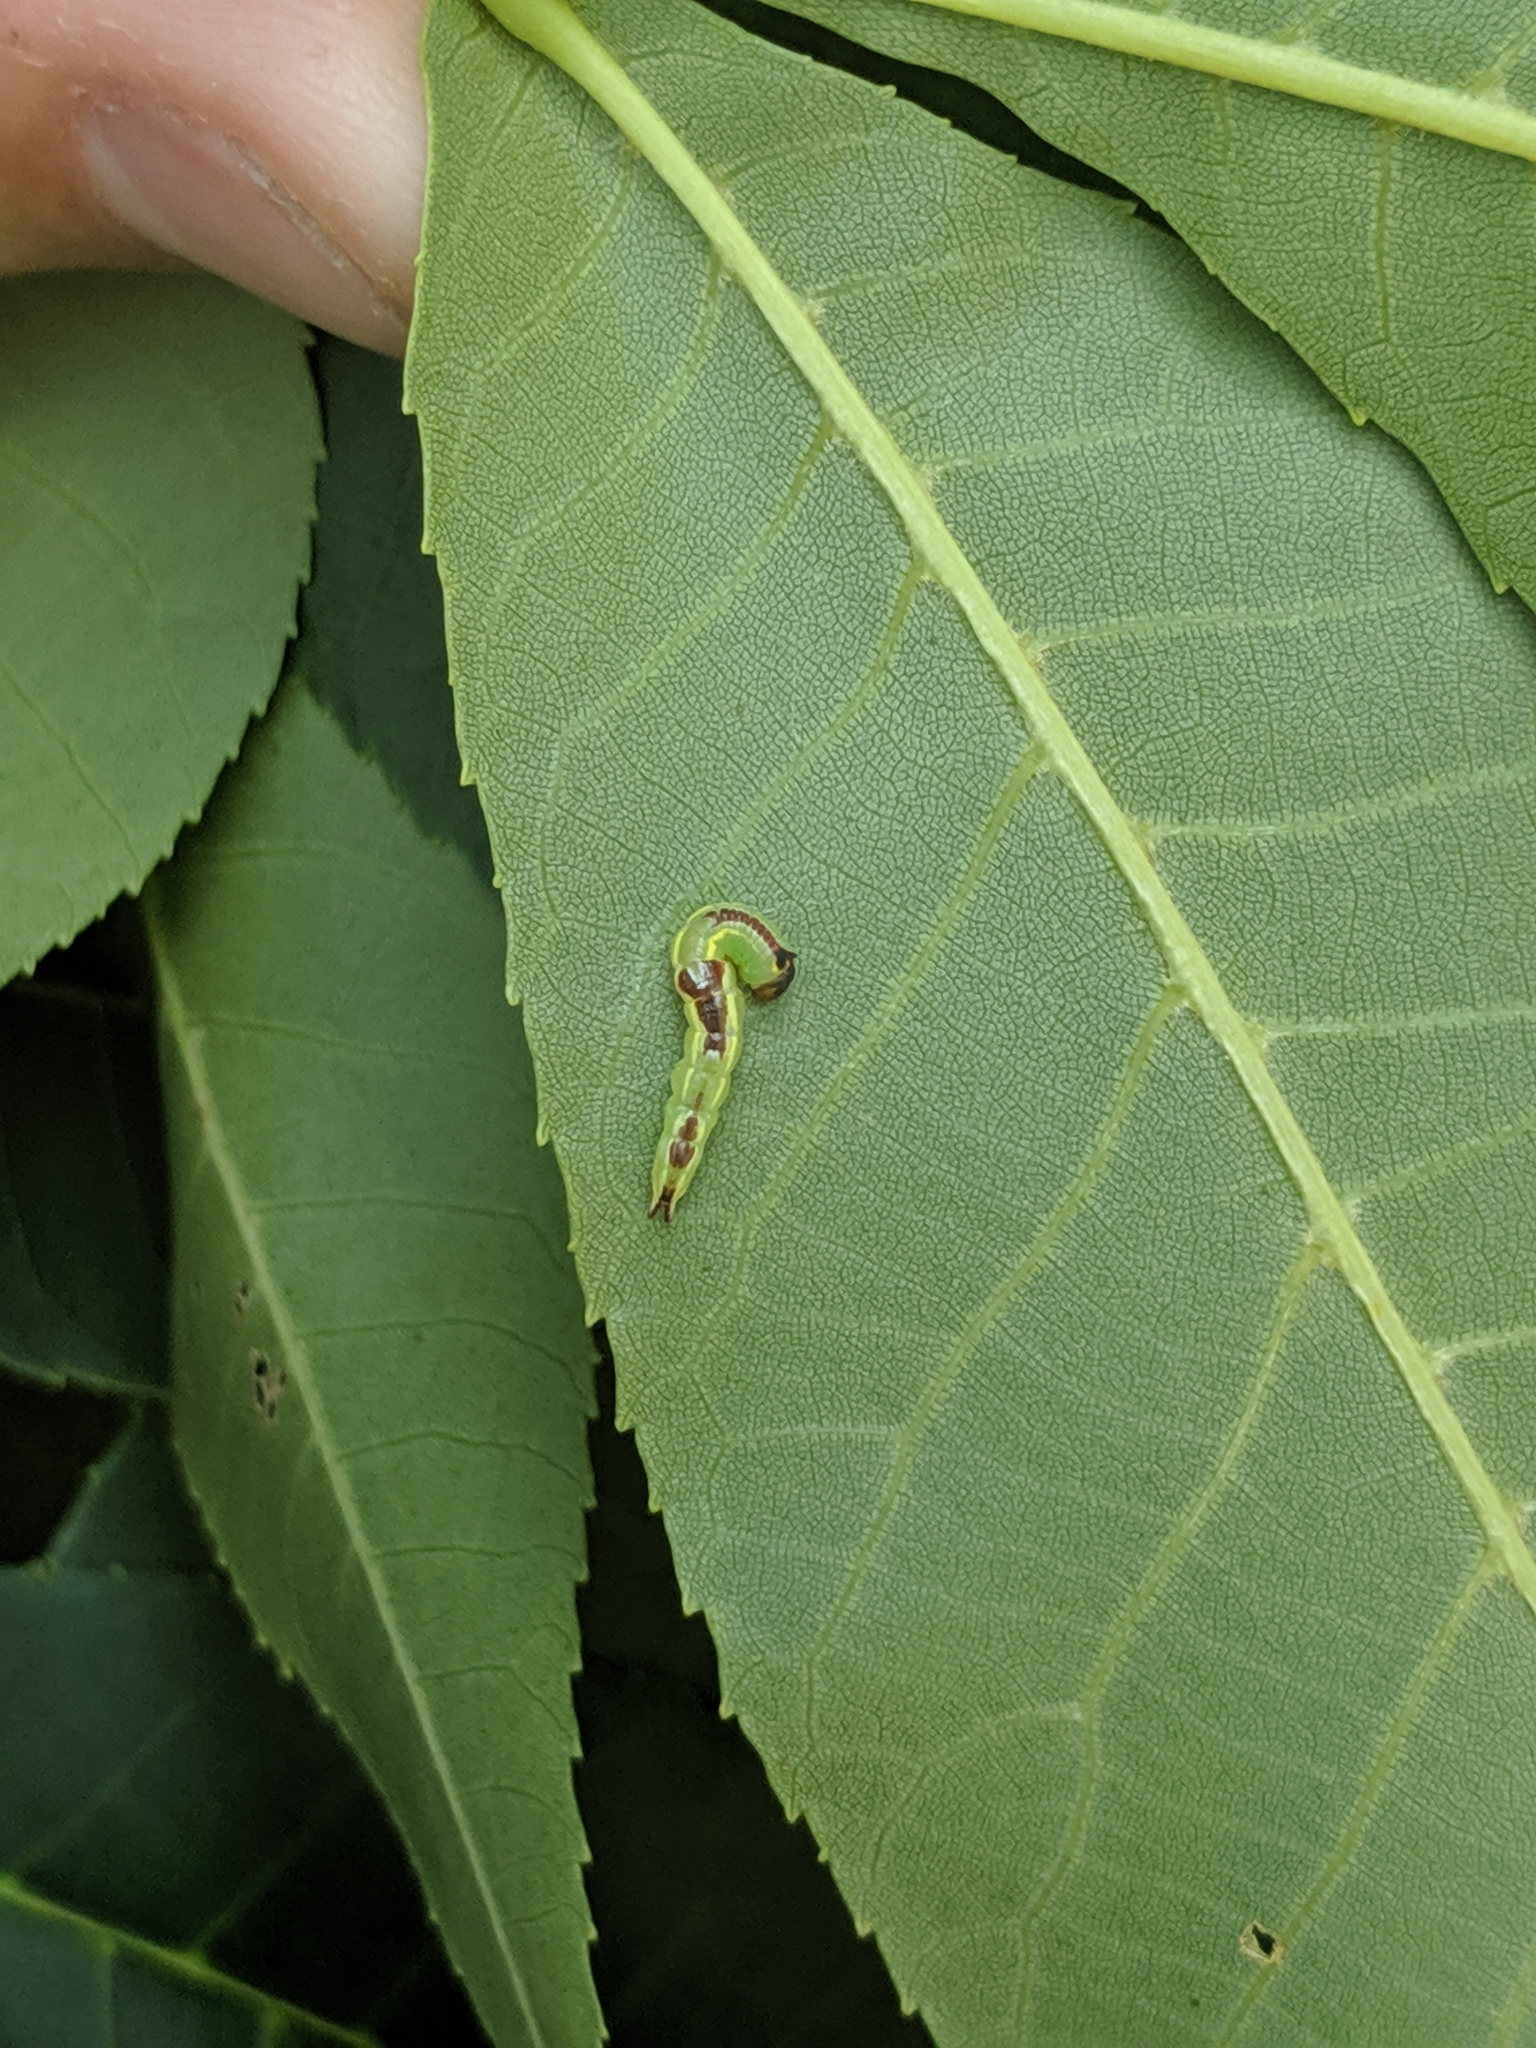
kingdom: Animalia
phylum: Arthropoda
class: Insecta
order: Lepidoptera
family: Notodontidae
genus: Disphragis
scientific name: Disphragis Cecrita guttivitta
